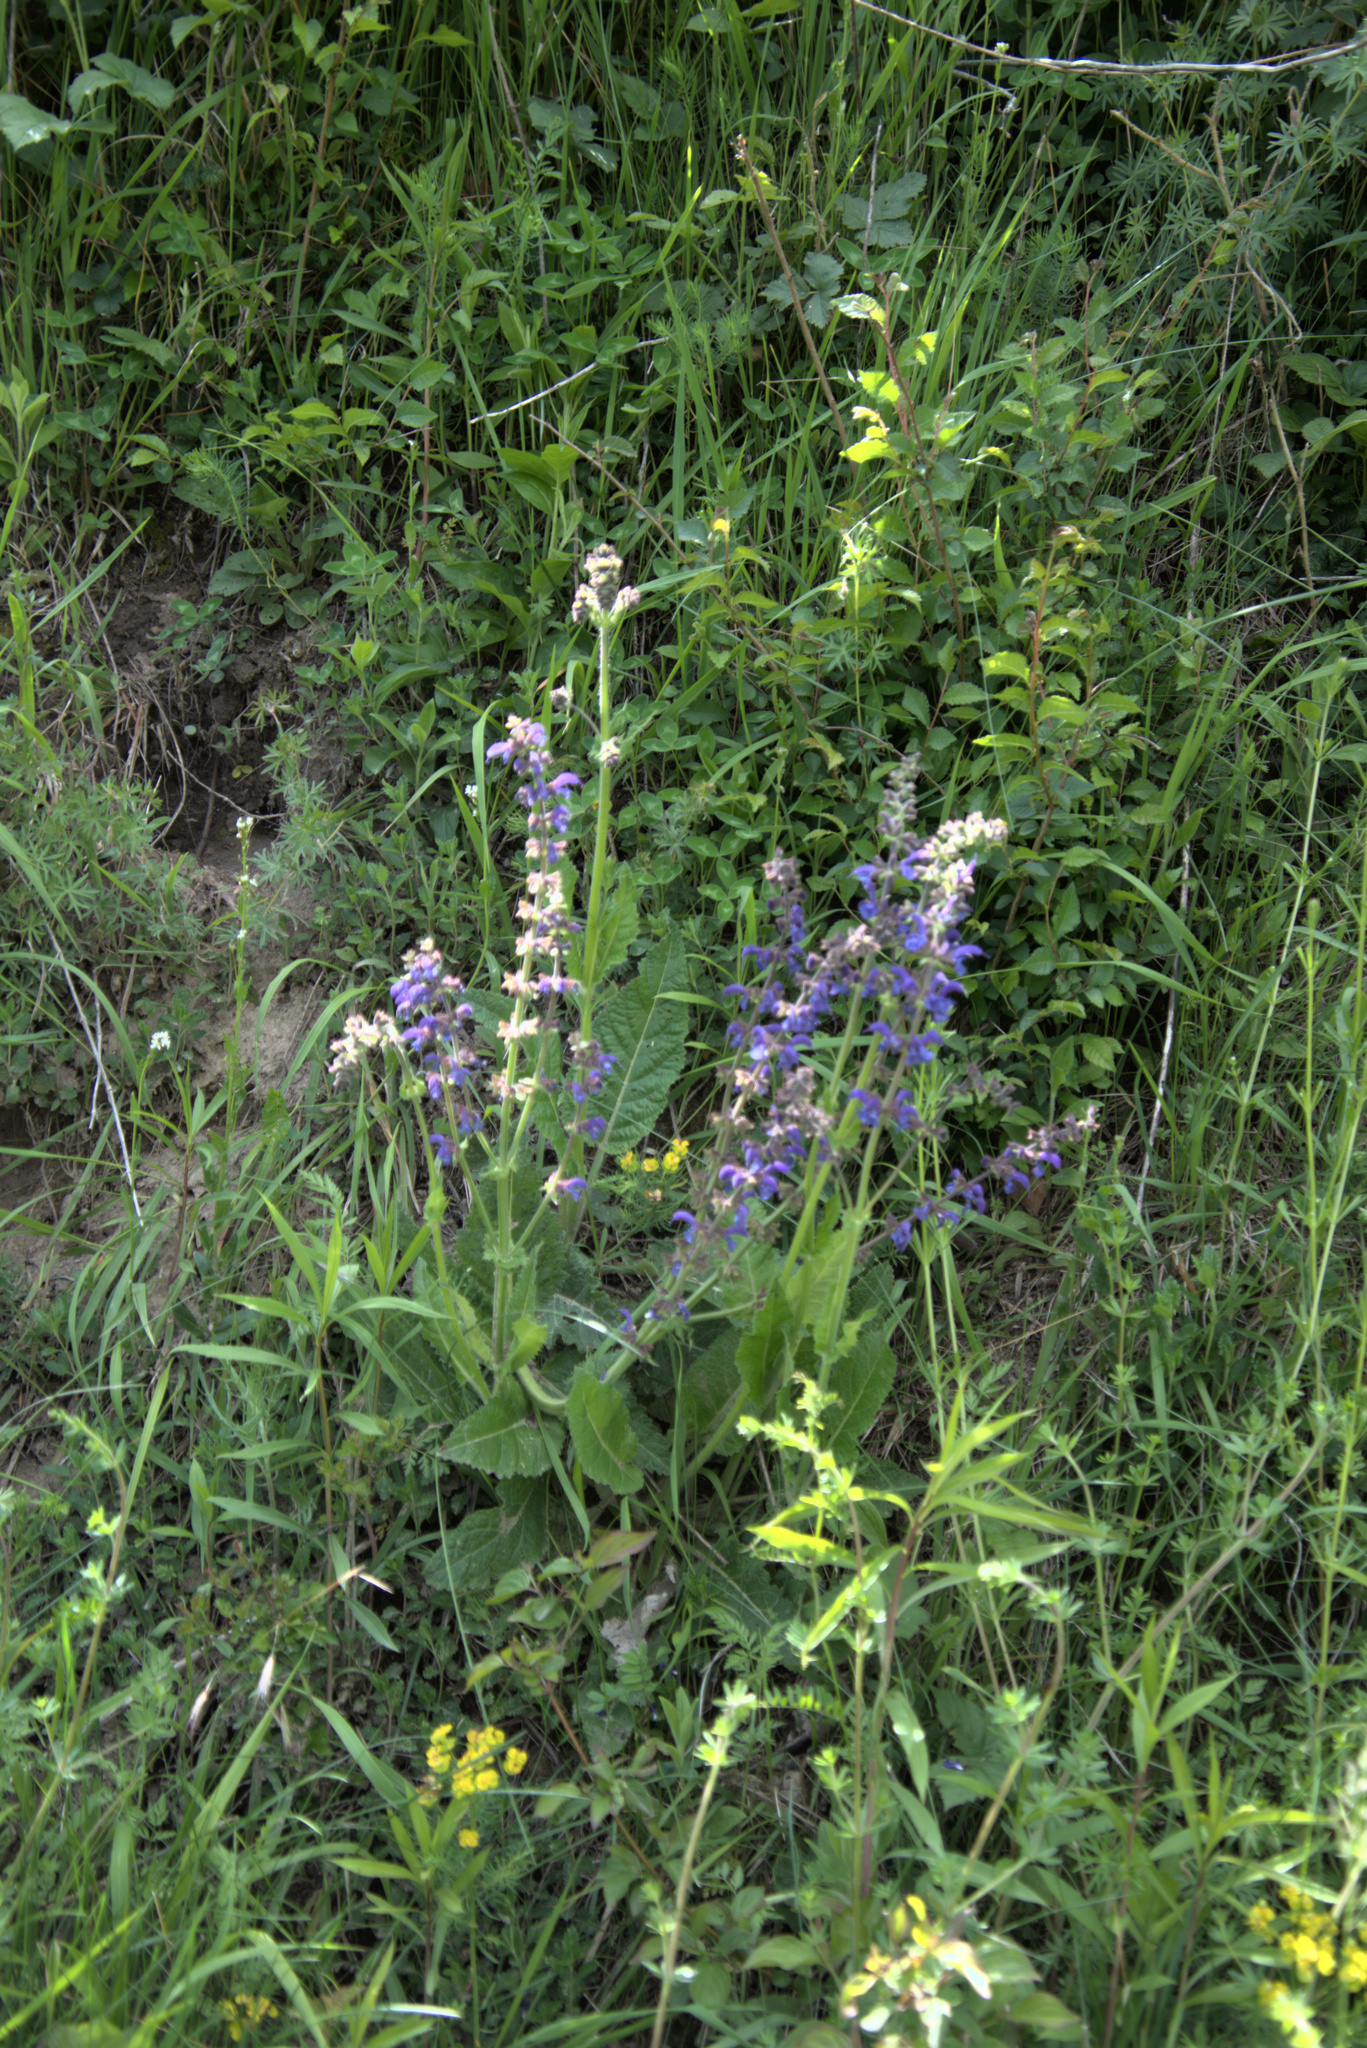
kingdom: Plantae
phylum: Tracheophyta
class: Magnoliopsida
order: Lamiales
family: Lamiaceae
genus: Salvia
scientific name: Salvia pratensis
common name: Meadow sage
